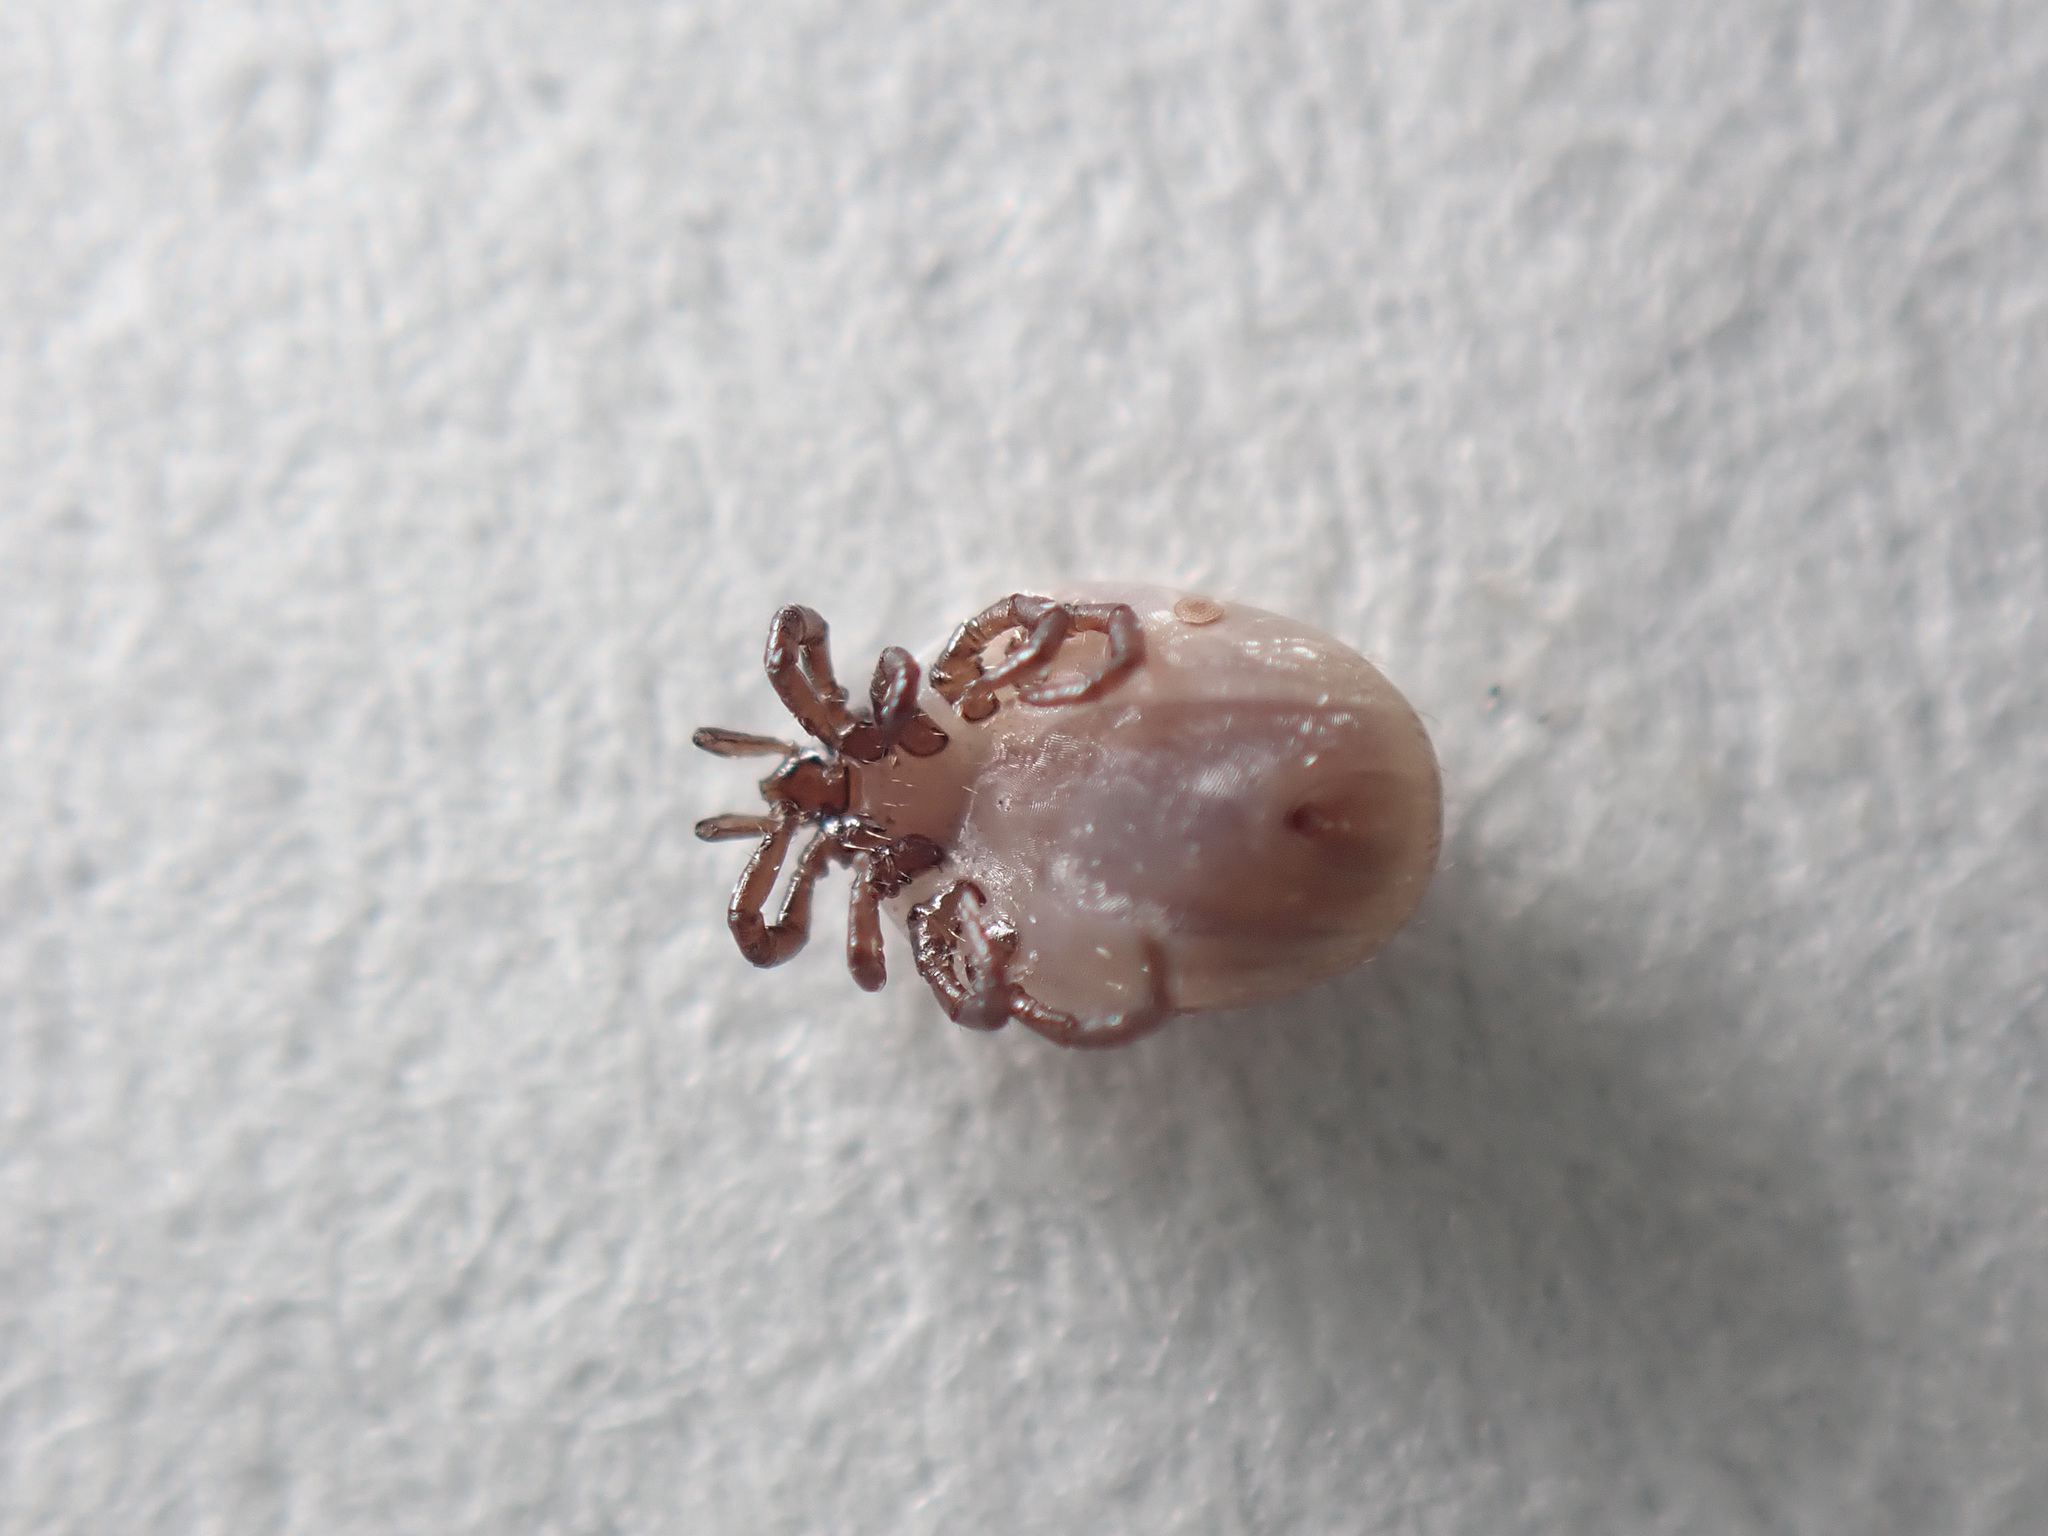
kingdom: Animalia
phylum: Arthropoda
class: Arachnida
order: Ixodida
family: Ixodidae
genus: Ixodes
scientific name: Ixodes ricinus
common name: Castor bean tick
